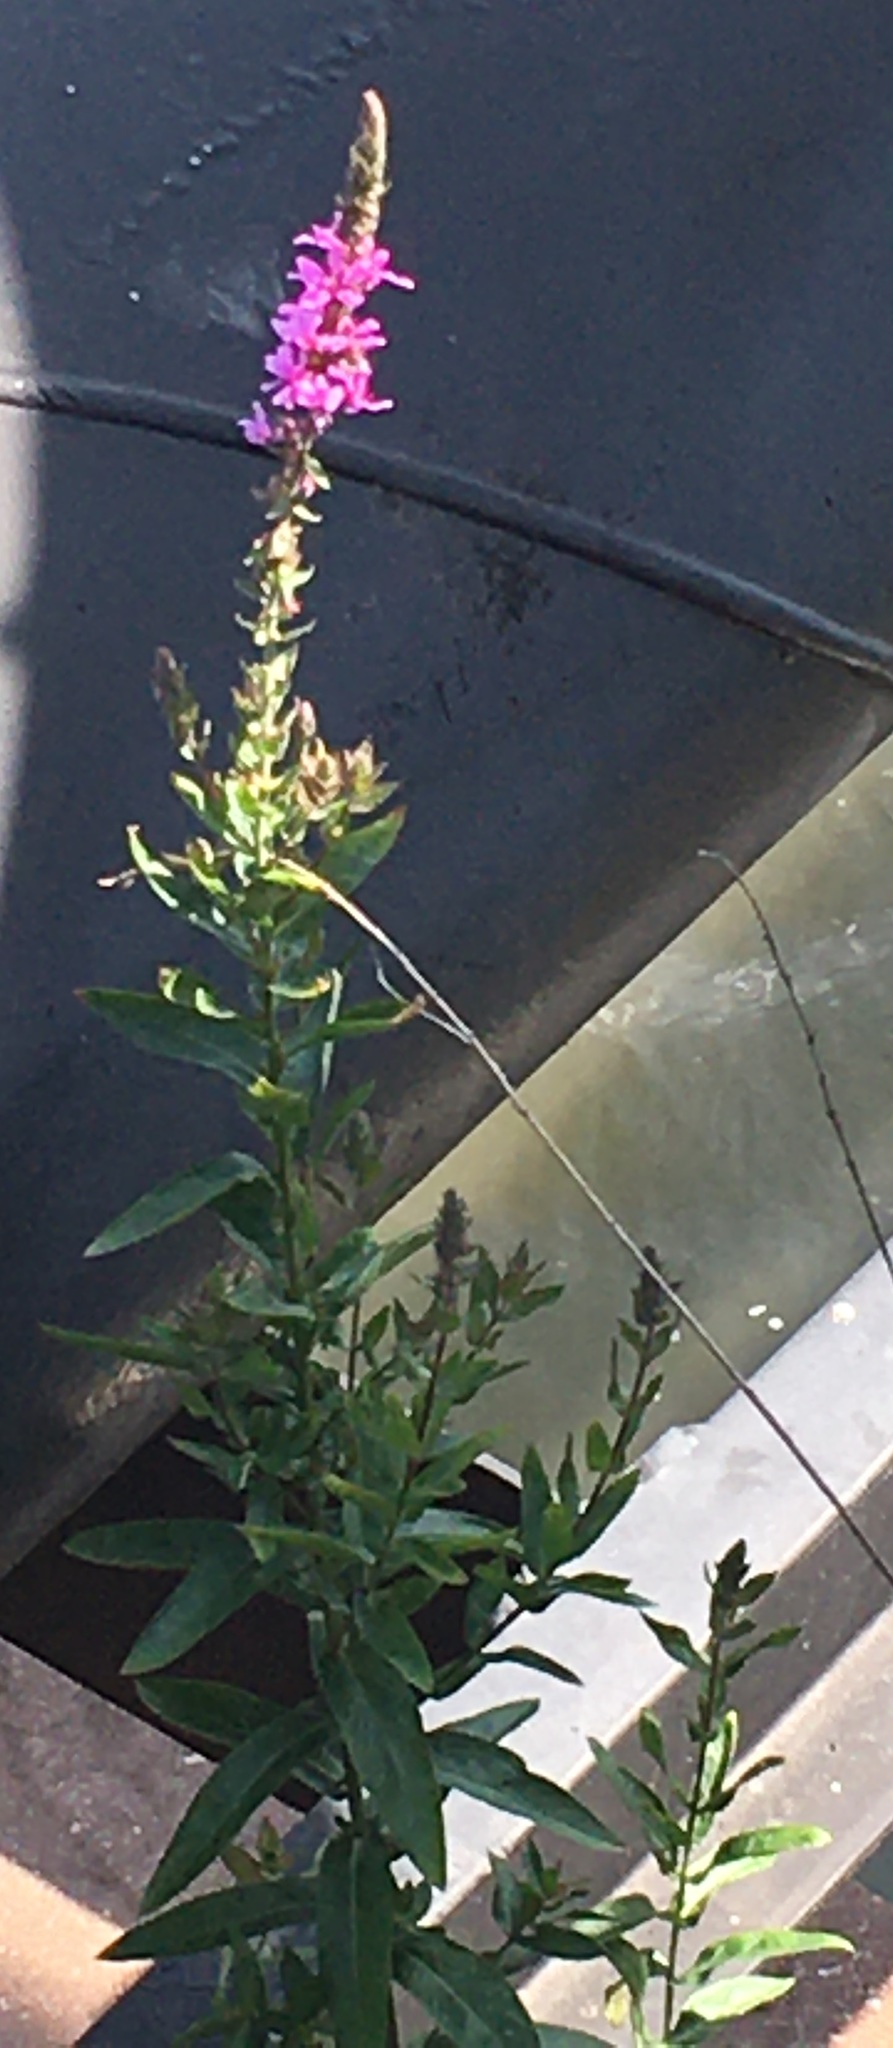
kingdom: Plantae
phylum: Tracheophyta
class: Magnoliopsida
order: Myrtales
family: Lythraceae
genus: Lythrum
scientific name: Lythrum salicaria
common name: Purple loosestrife
